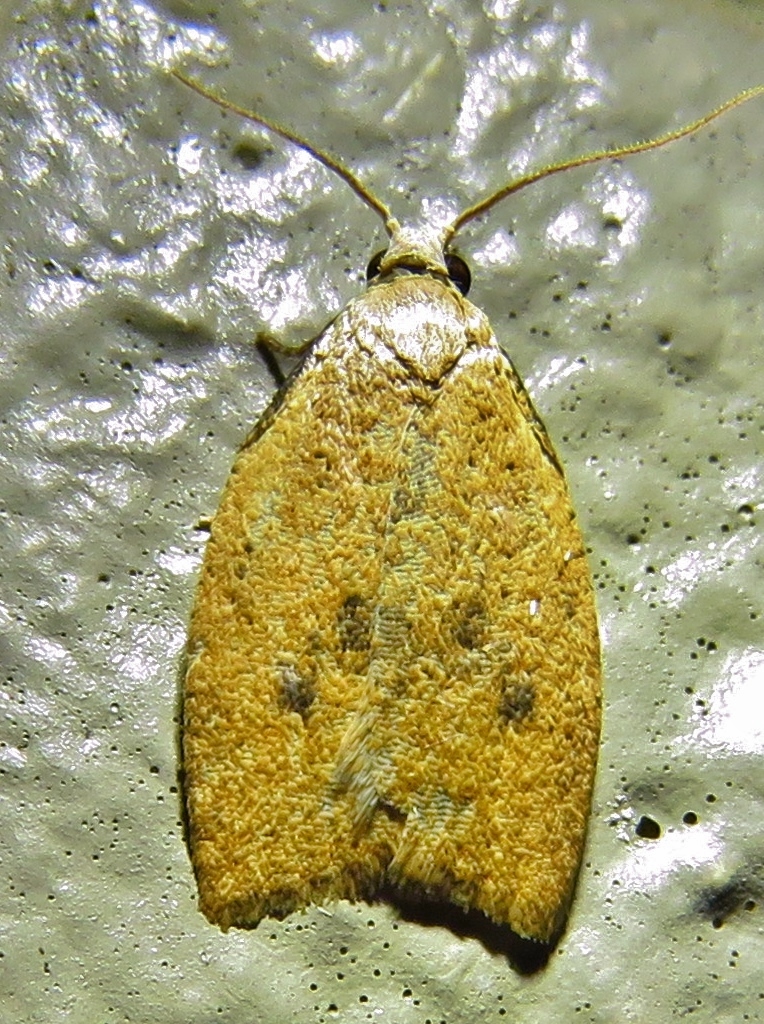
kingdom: Animalia
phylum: Arthropoda
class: Insecta
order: Lepidoptera
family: Tortricidae
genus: Sparganothoides
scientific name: Sparganothoides lentiginosana
